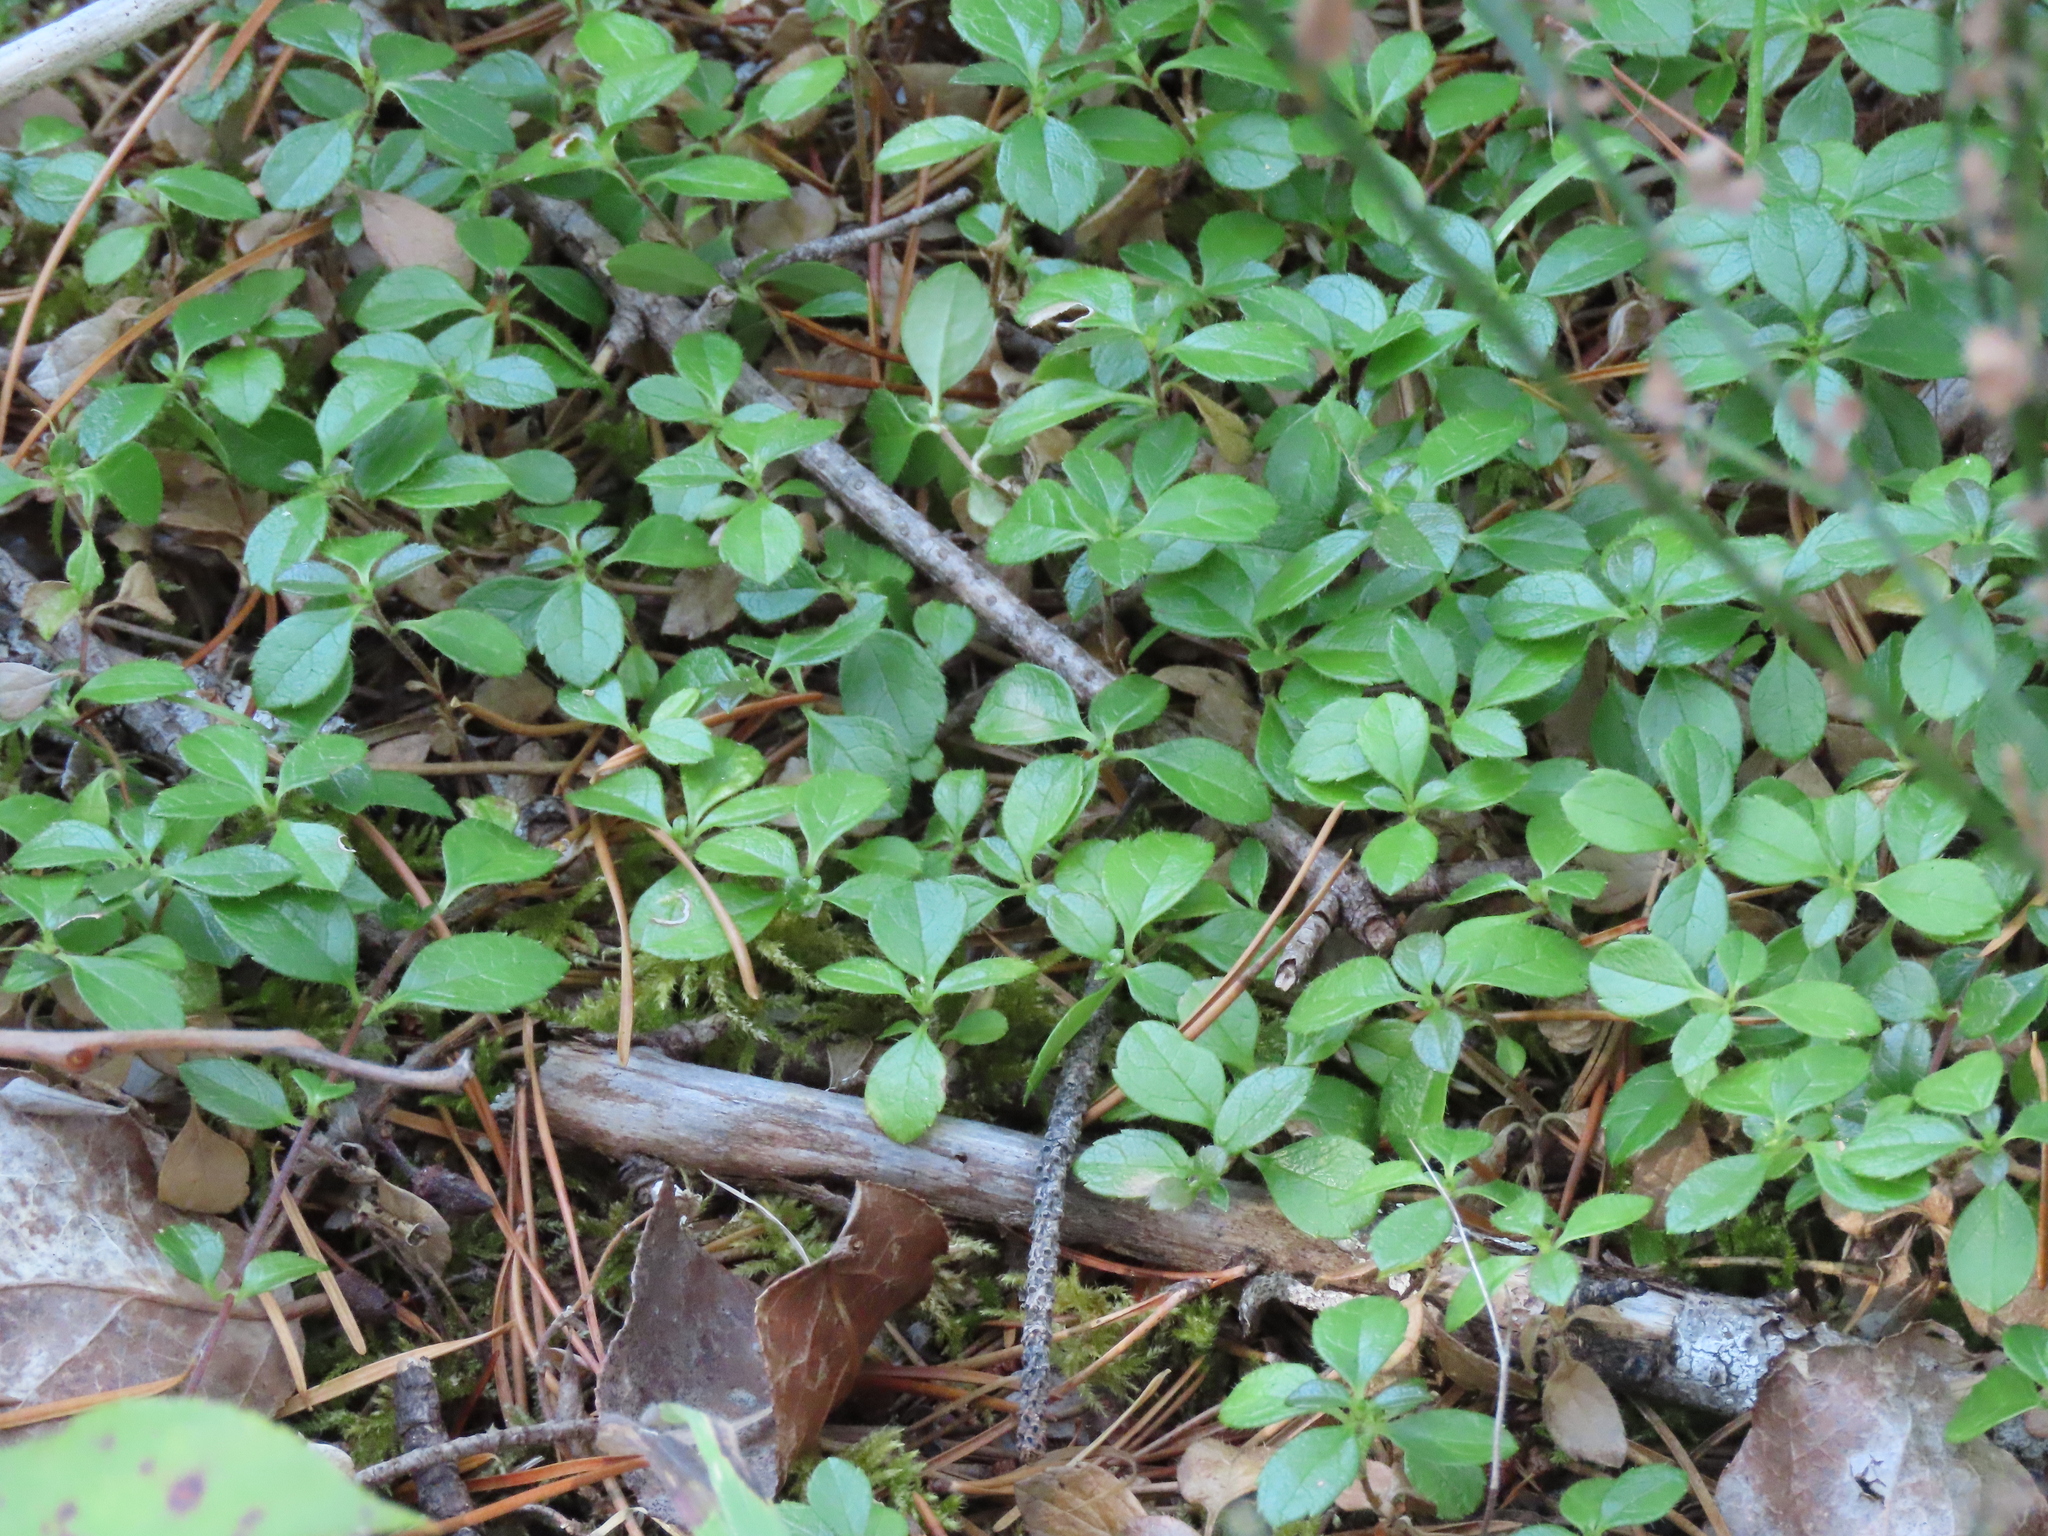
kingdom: Plantae
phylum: Tracheophyta
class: Magnoliopsida
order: Dipsacales
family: Caprifoliaceae
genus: Linnaea
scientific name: Linnaea borealis
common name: Twinflower
